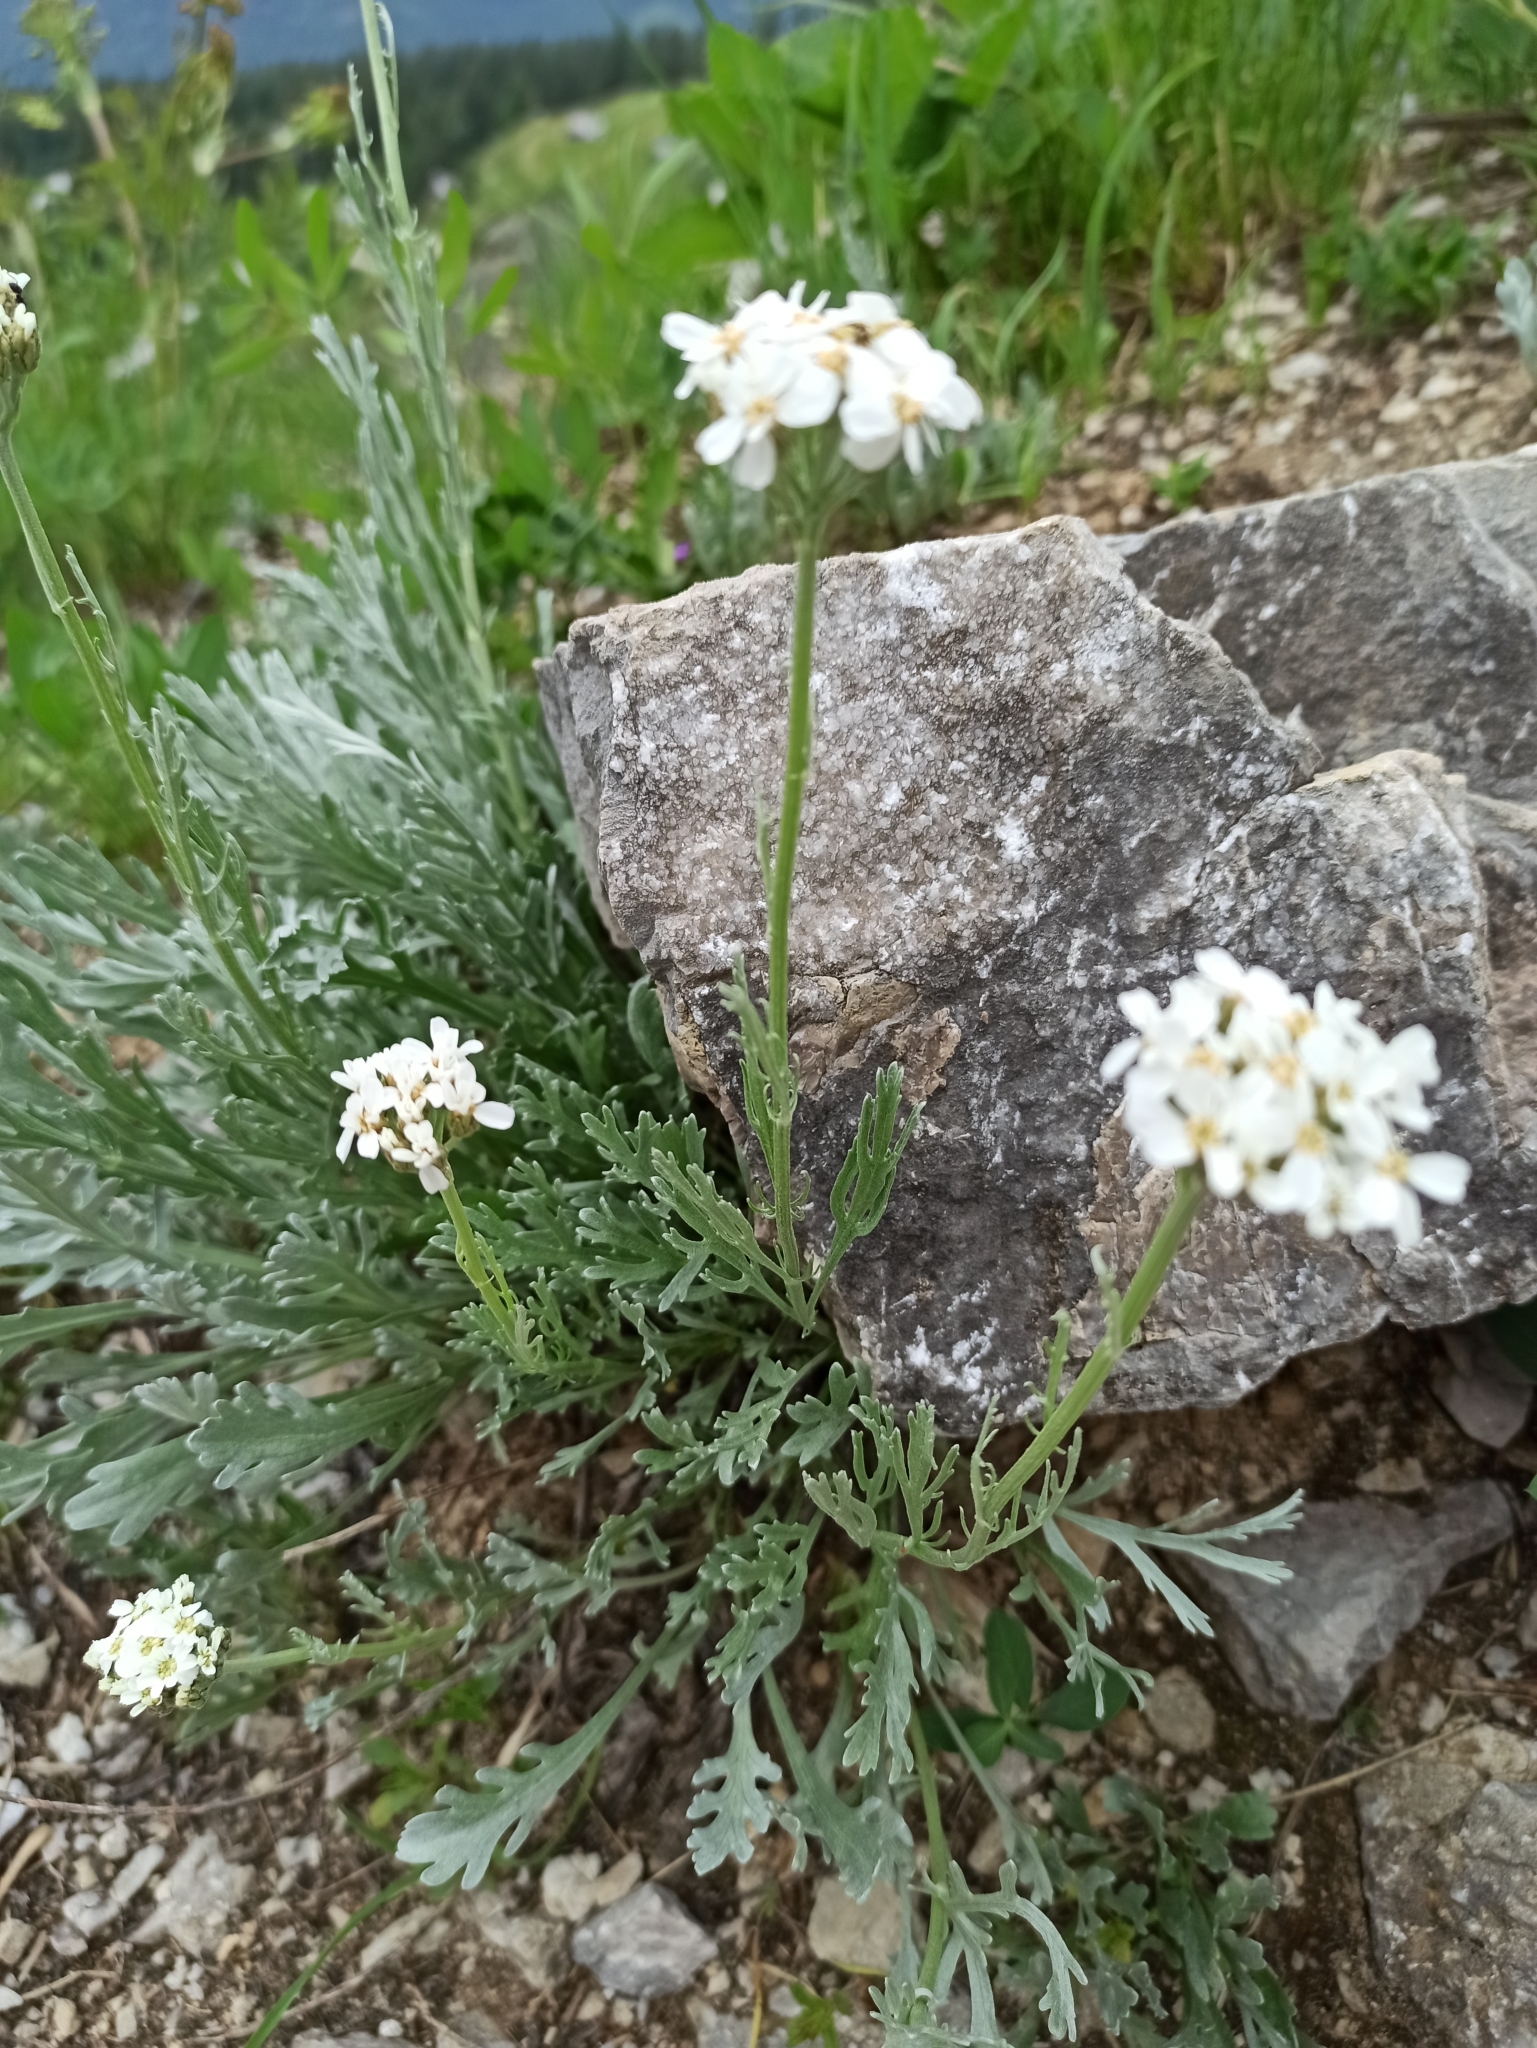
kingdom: Plantae
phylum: Tracheophyta
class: Magnoliopsida
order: Asterales
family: Asteraceae
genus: Achillea
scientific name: Achillea clavennae
